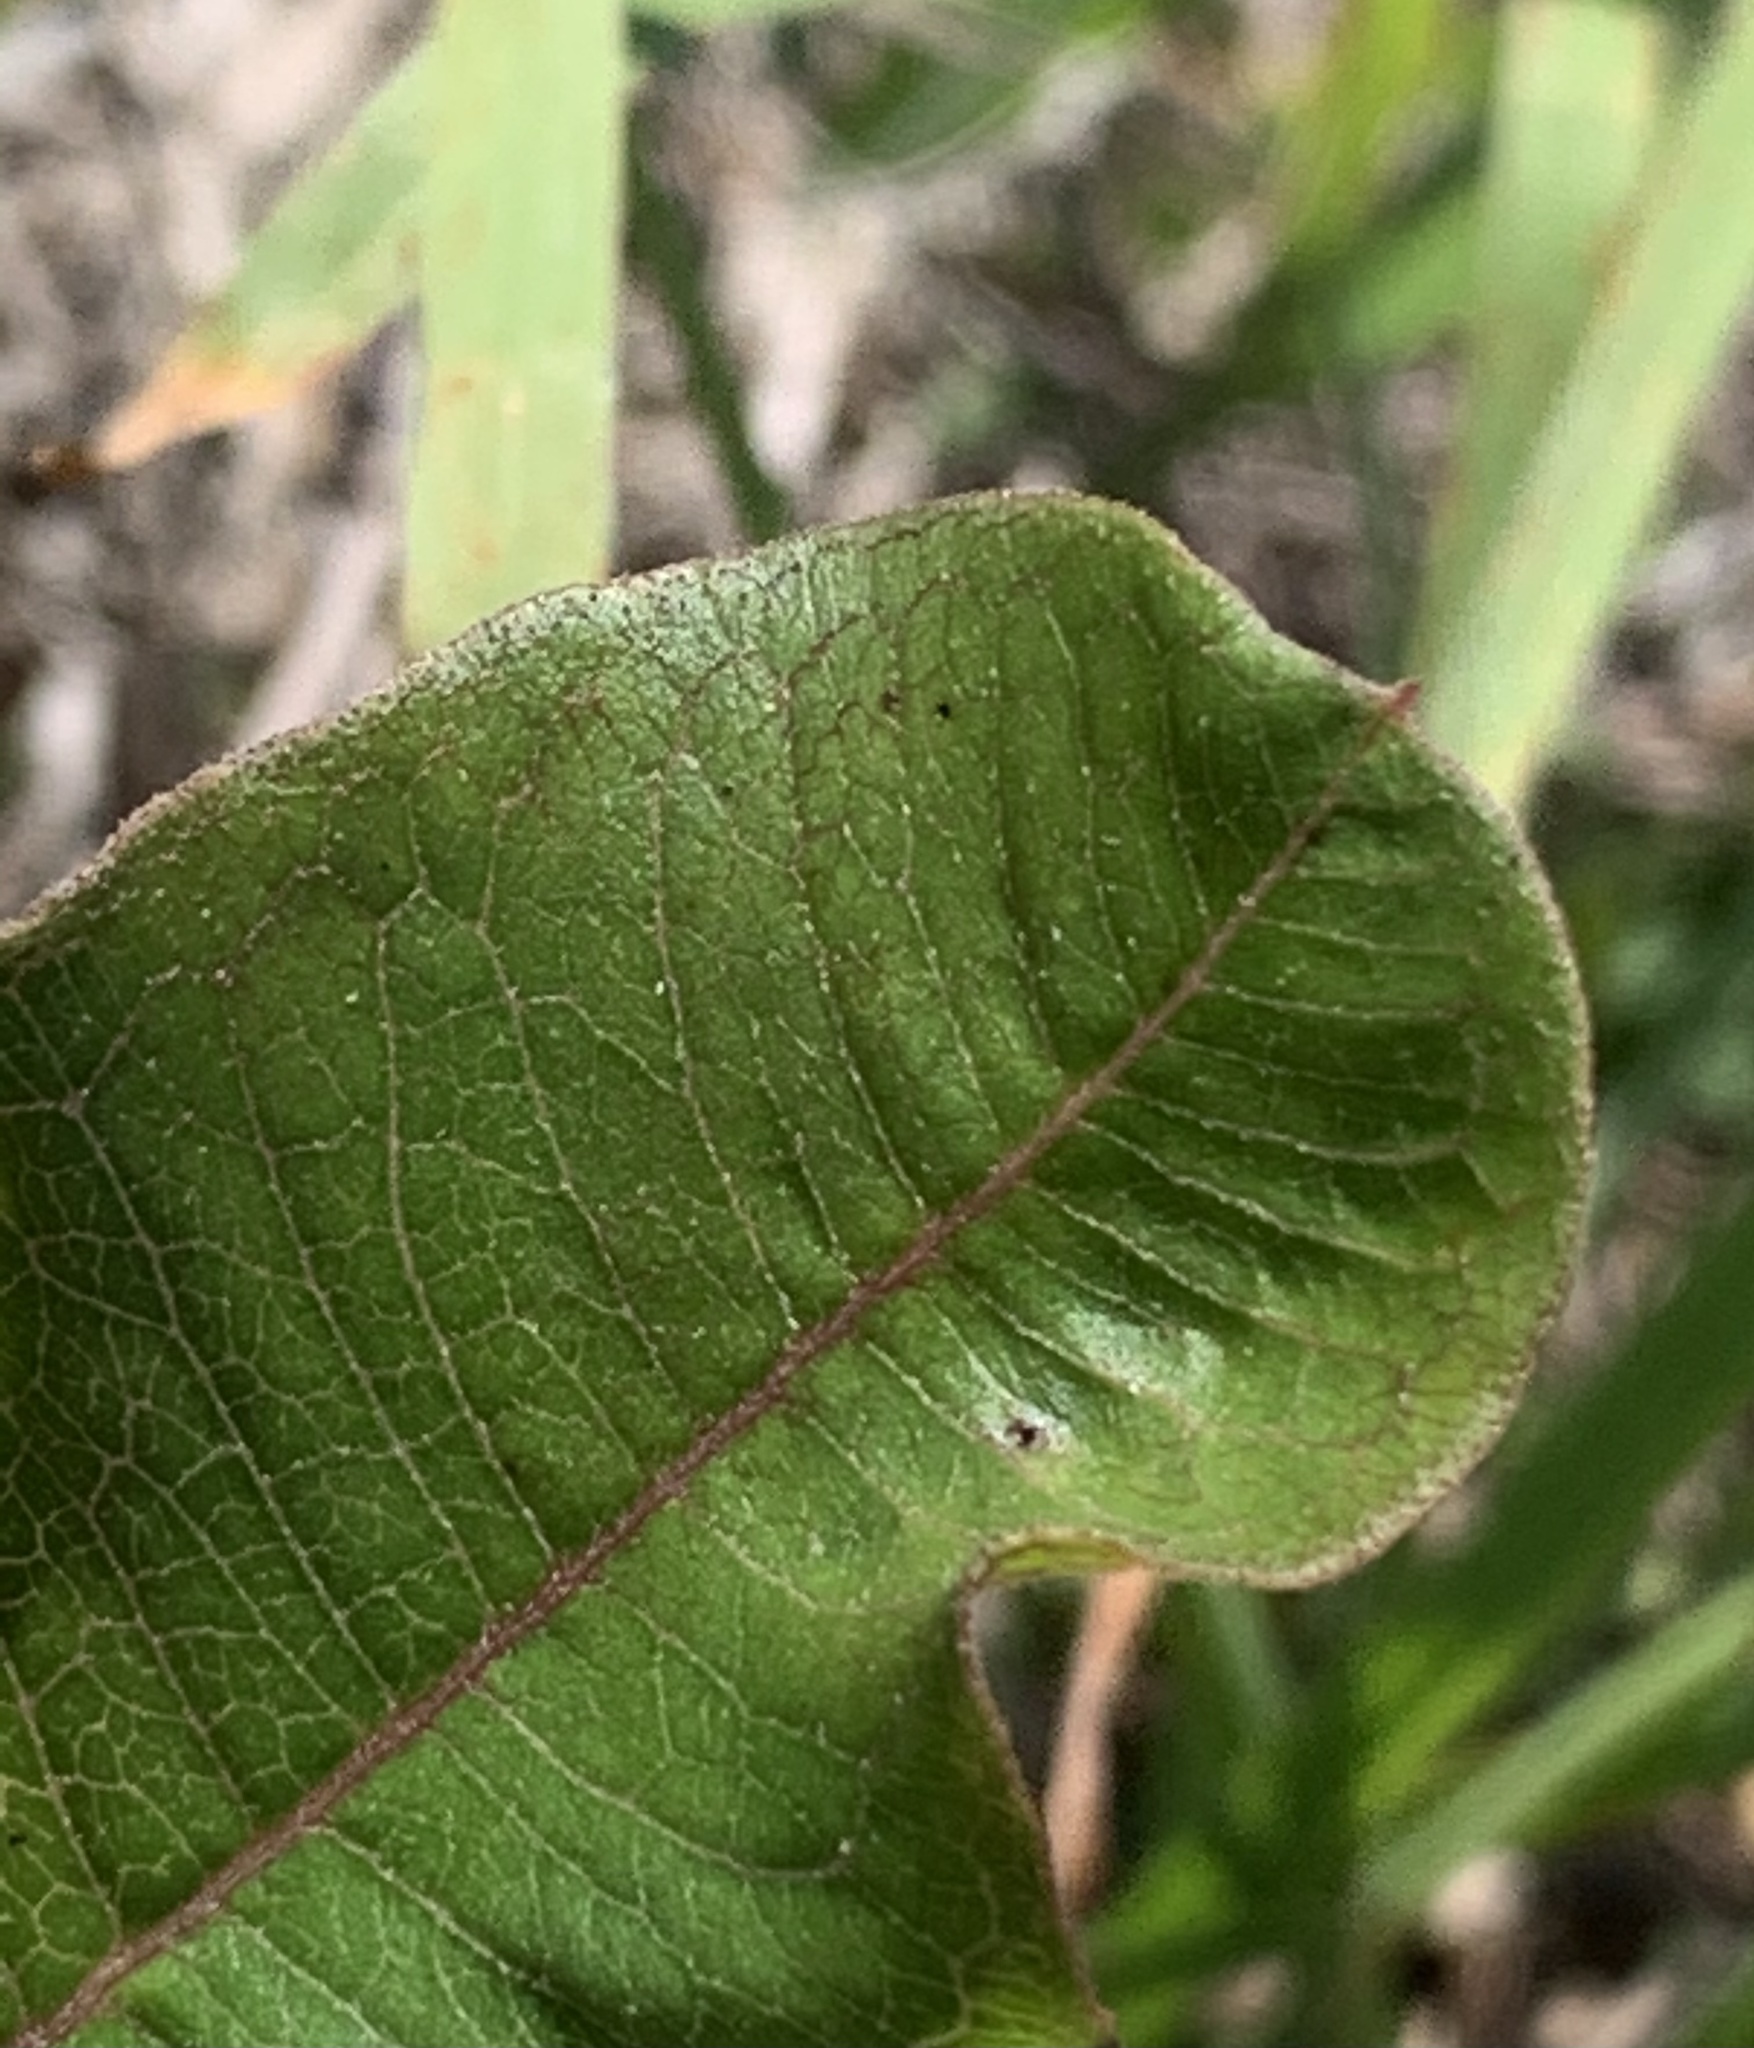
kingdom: Plantae
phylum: Tracheophyta
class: Magnoliopsida
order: Gentianales
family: Apocynaceae
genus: Asclepias
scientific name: Asclepias tomentosa
